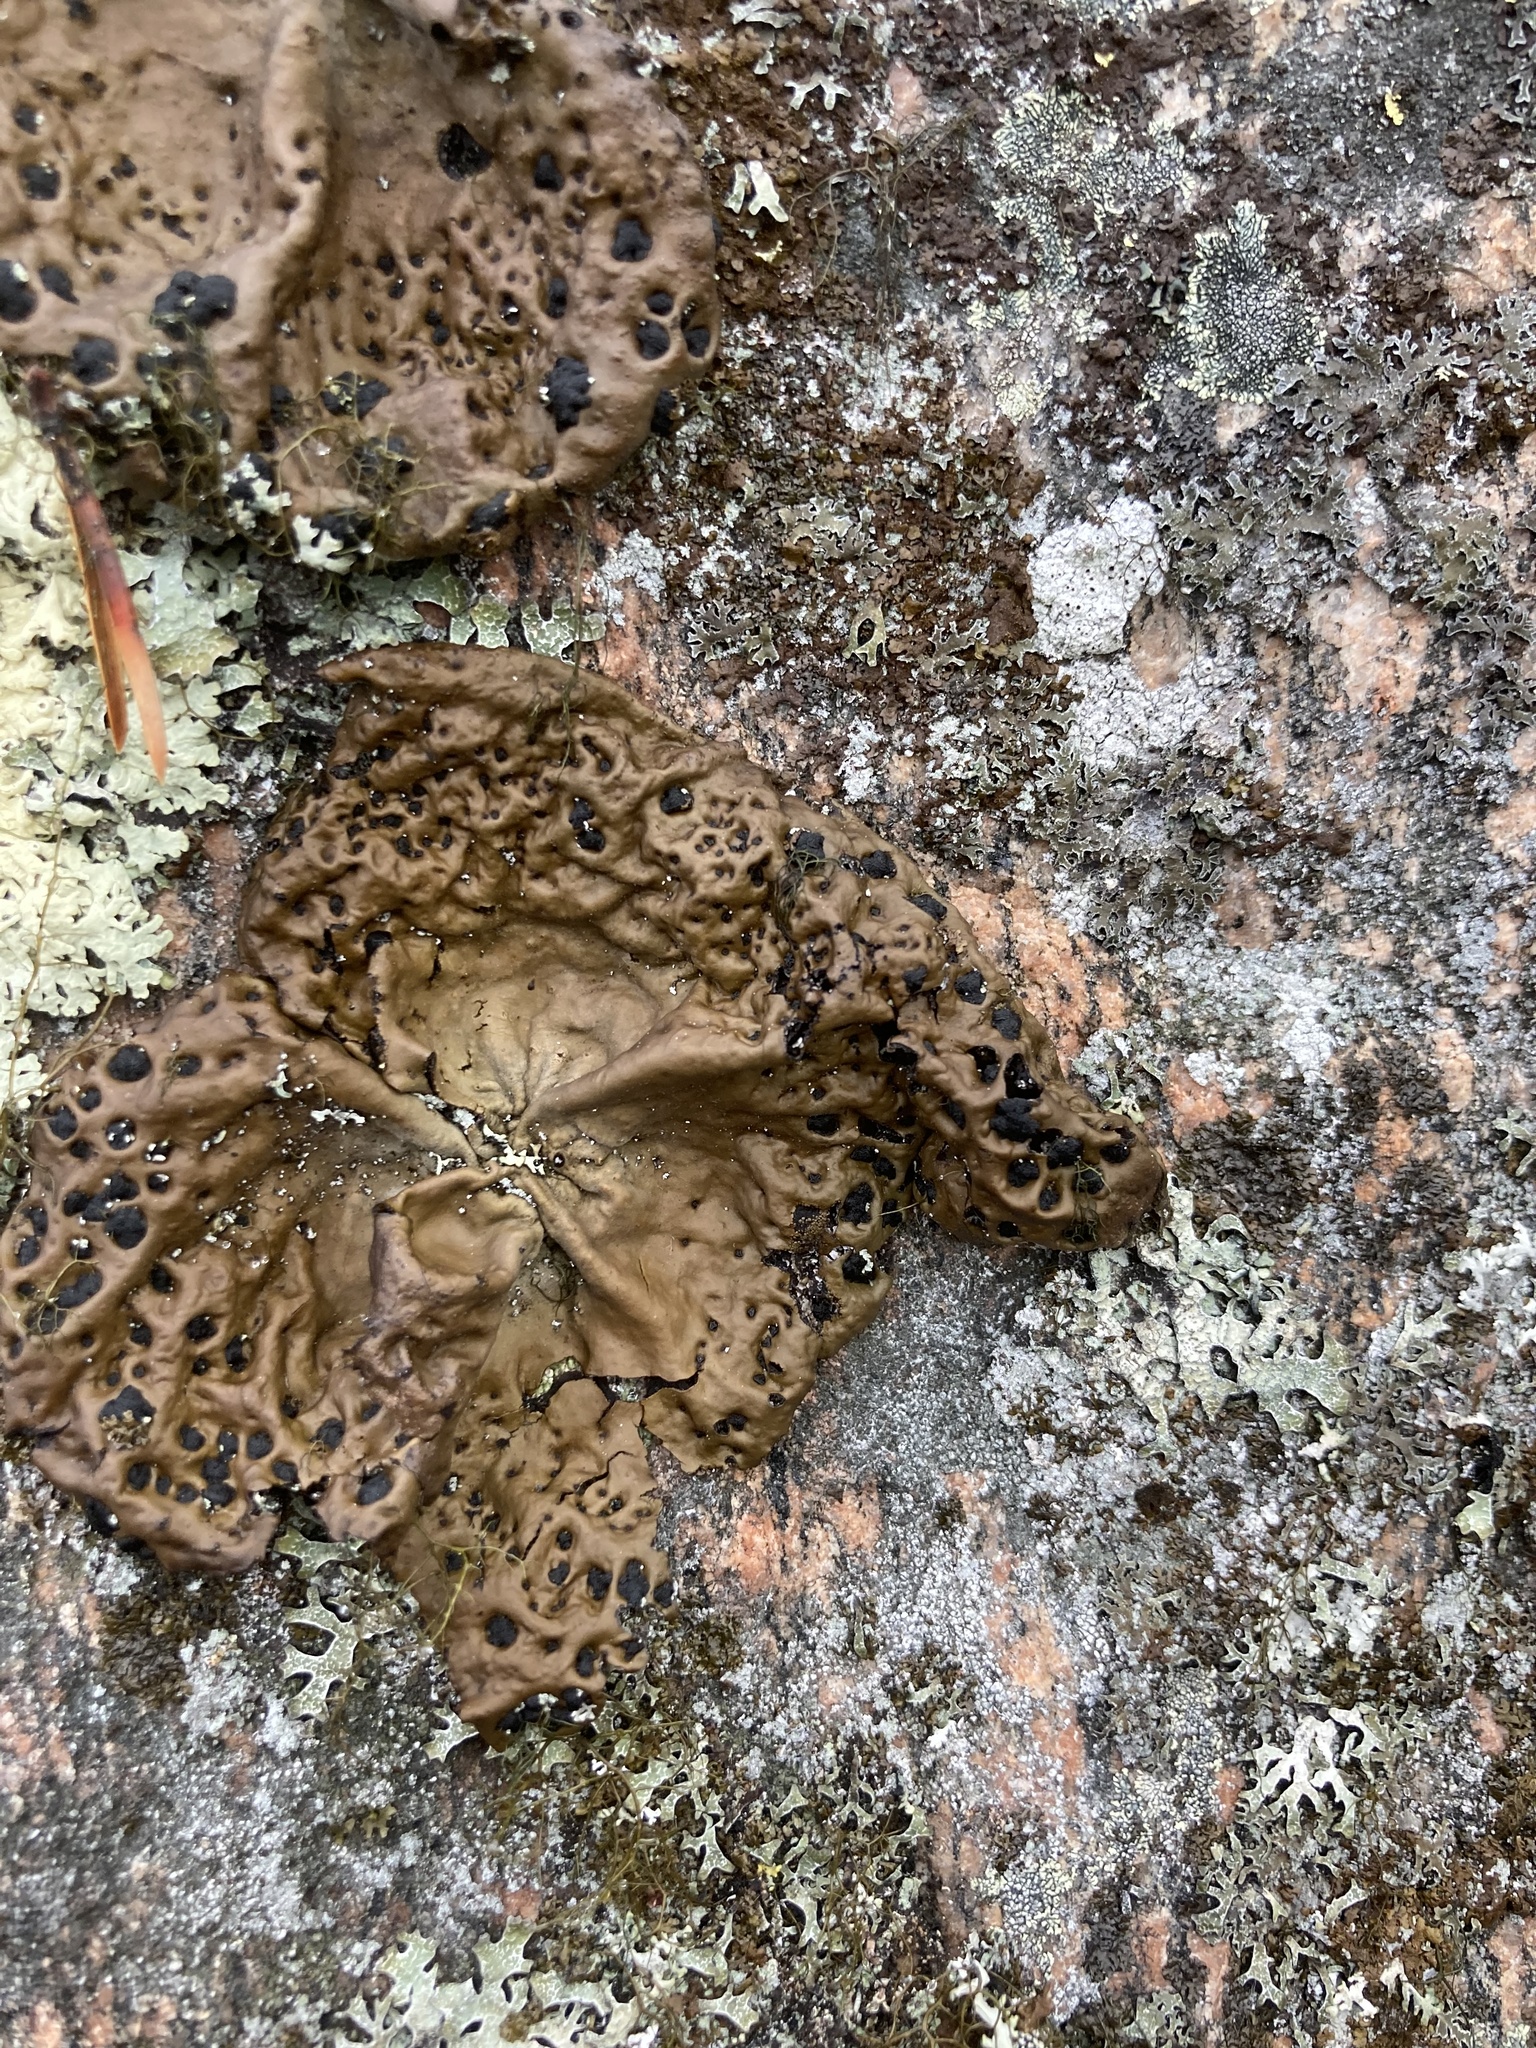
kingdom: Fungi
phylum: Ascomycota
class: Lecanoromycetes
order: Umbilicariales
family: Umbilicariaceae
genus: Umbilicaria
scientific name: Umbilicaria muhlenbergii
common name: Lesser rocktripe
